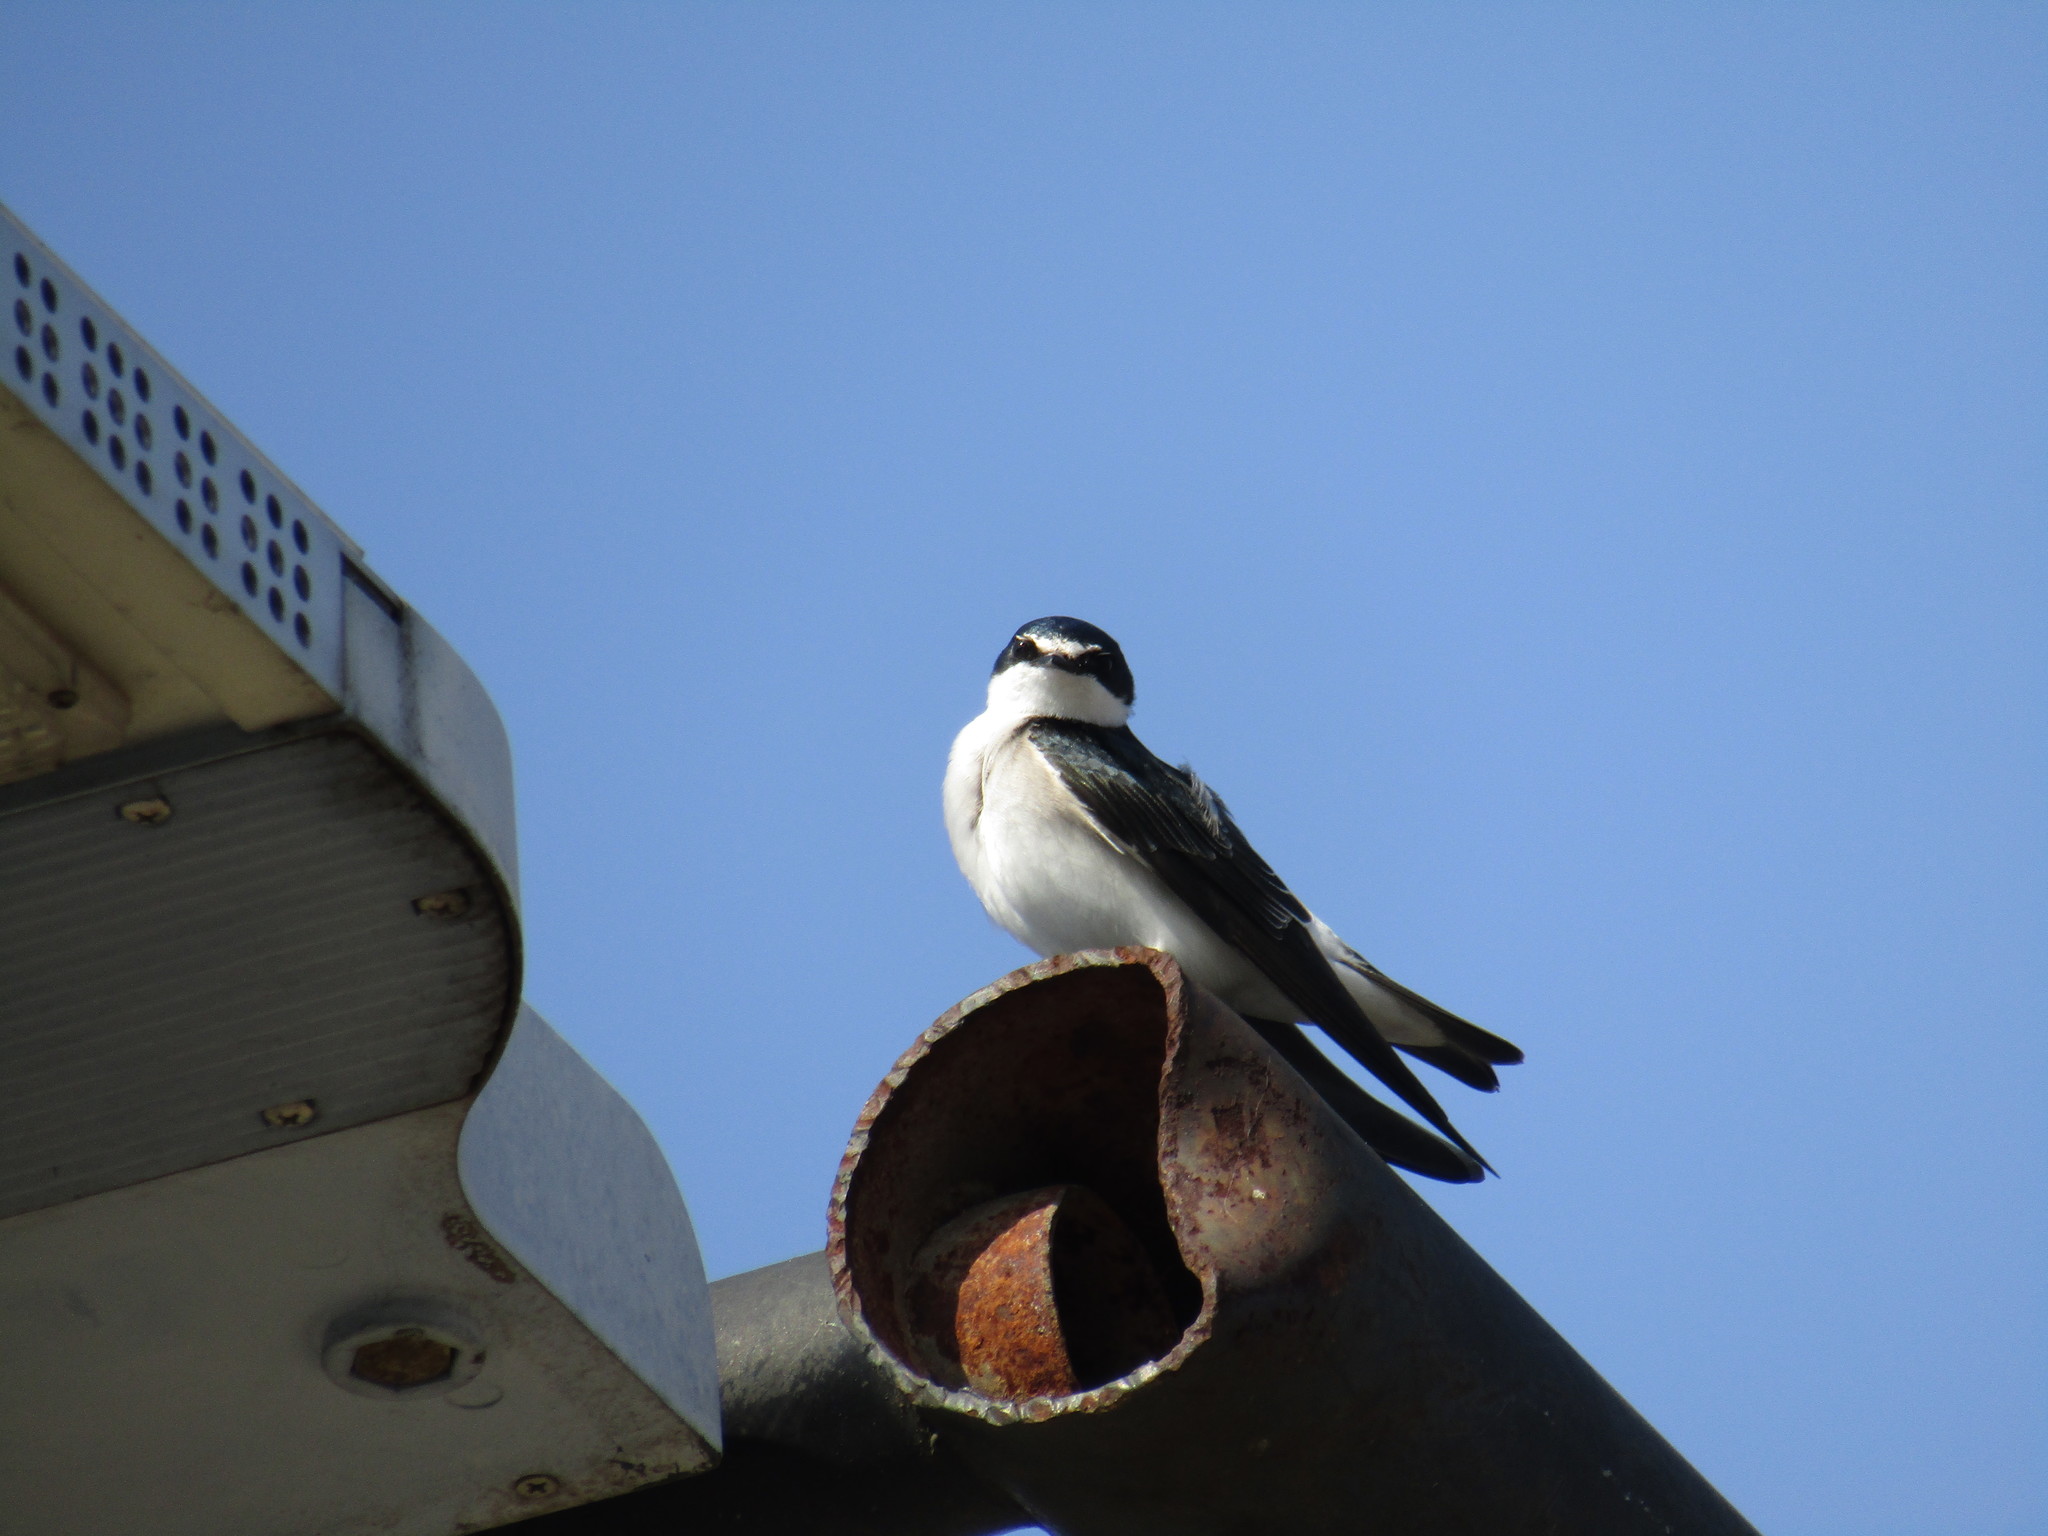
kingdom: Animalia
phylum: Chordata
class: Aves
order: Passeriformes
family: Hirundinidae
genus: Tachycineta
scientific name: Tachycineta leucorrhoa
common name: White-rumped swallow
